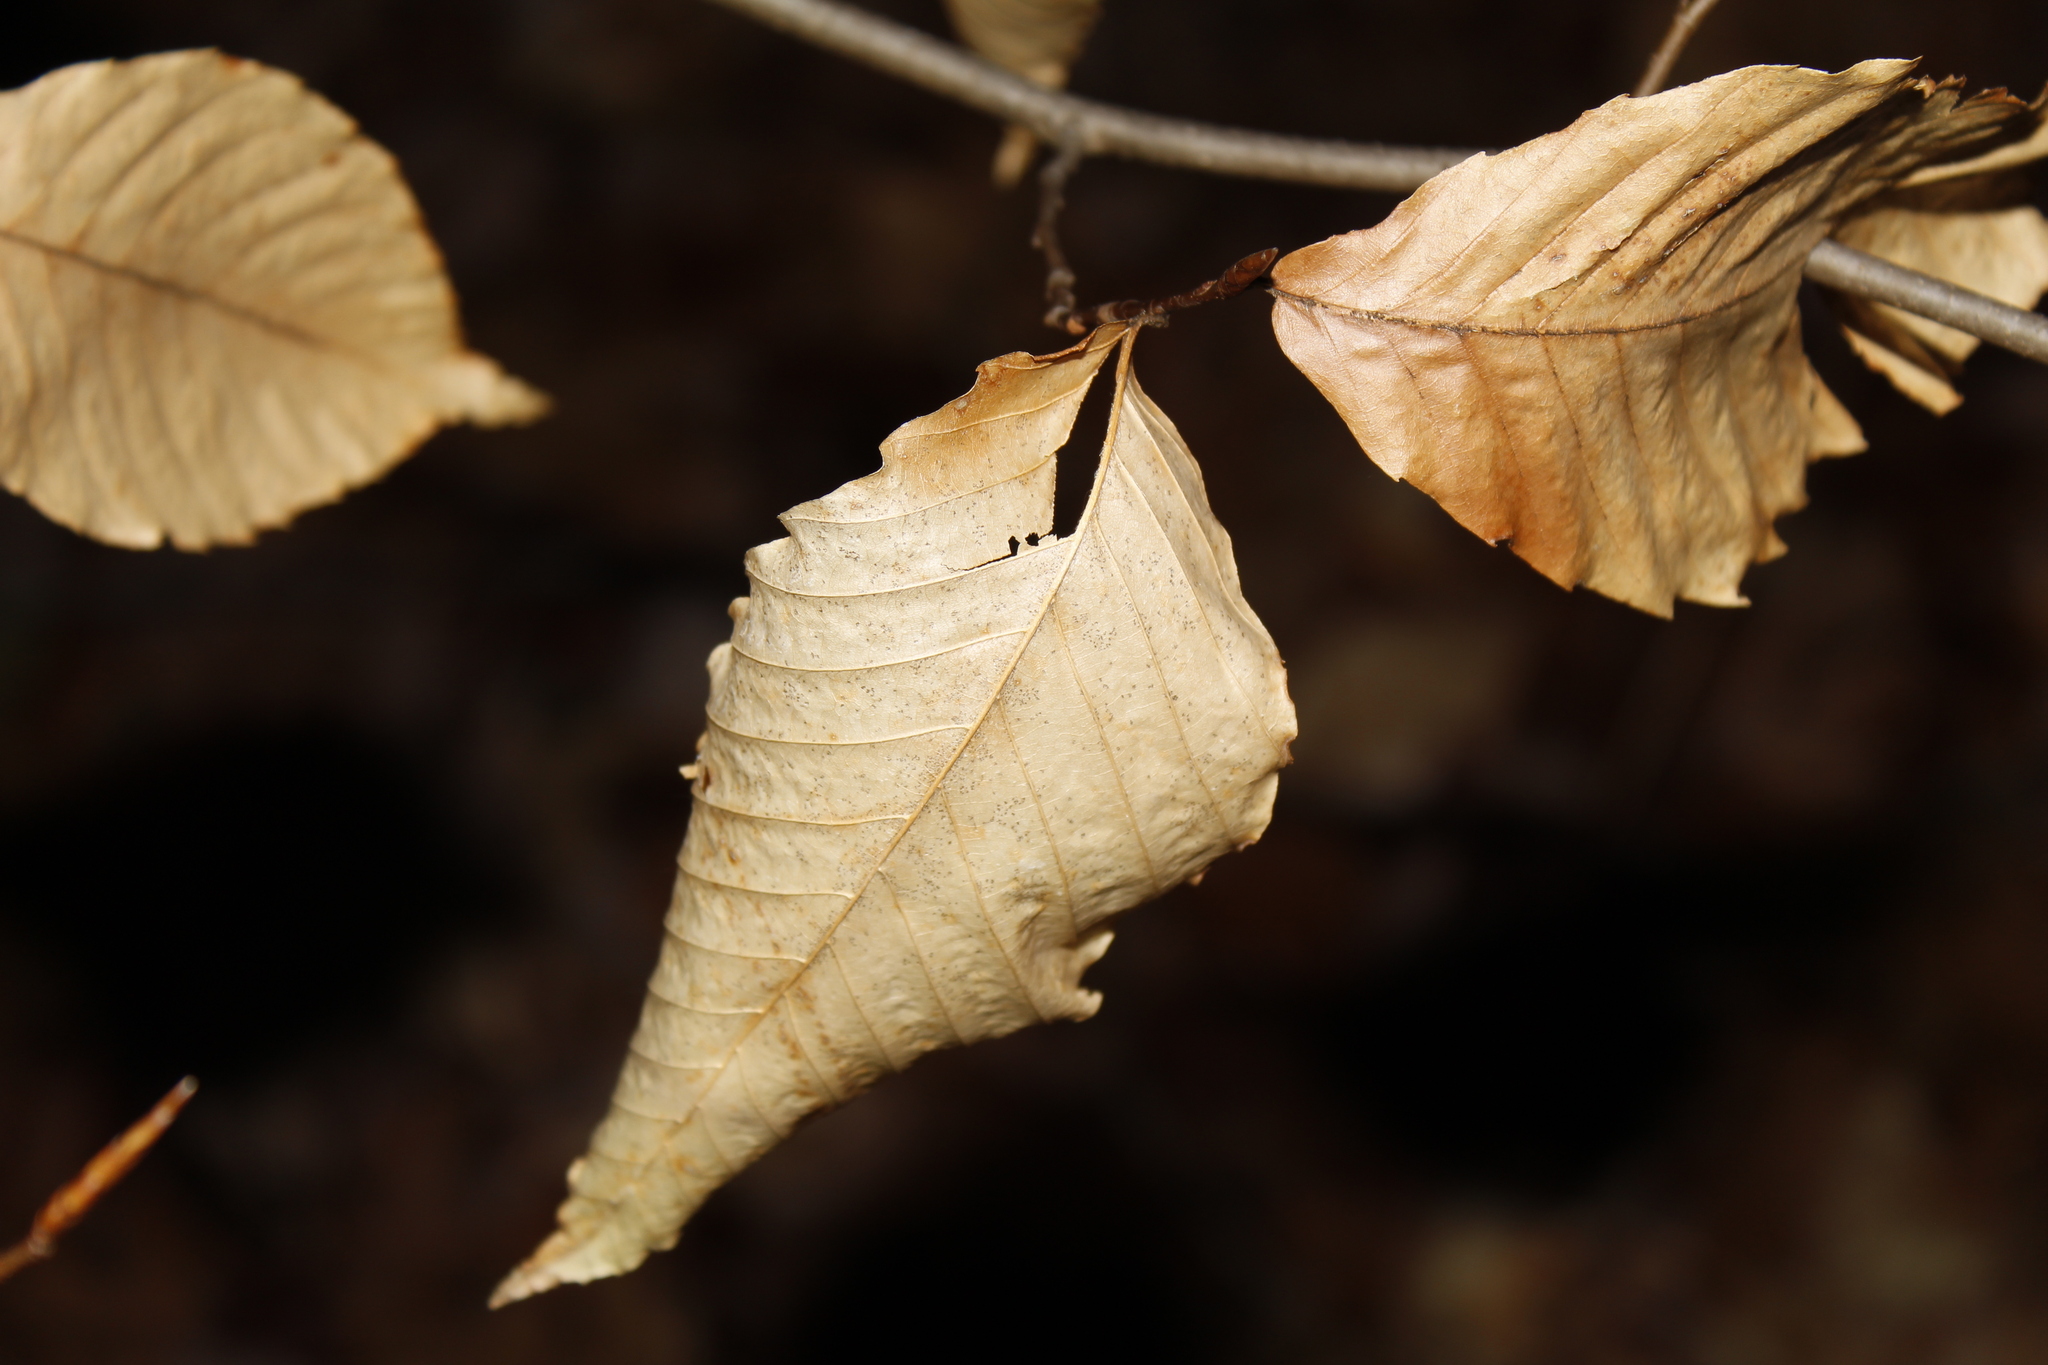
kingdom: Plantae
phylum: Tracheophyta
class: Magnoliopsida
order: Fagales
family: Fagaceae
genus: Fagus
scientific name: Fagus grandifolia
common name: American beech
